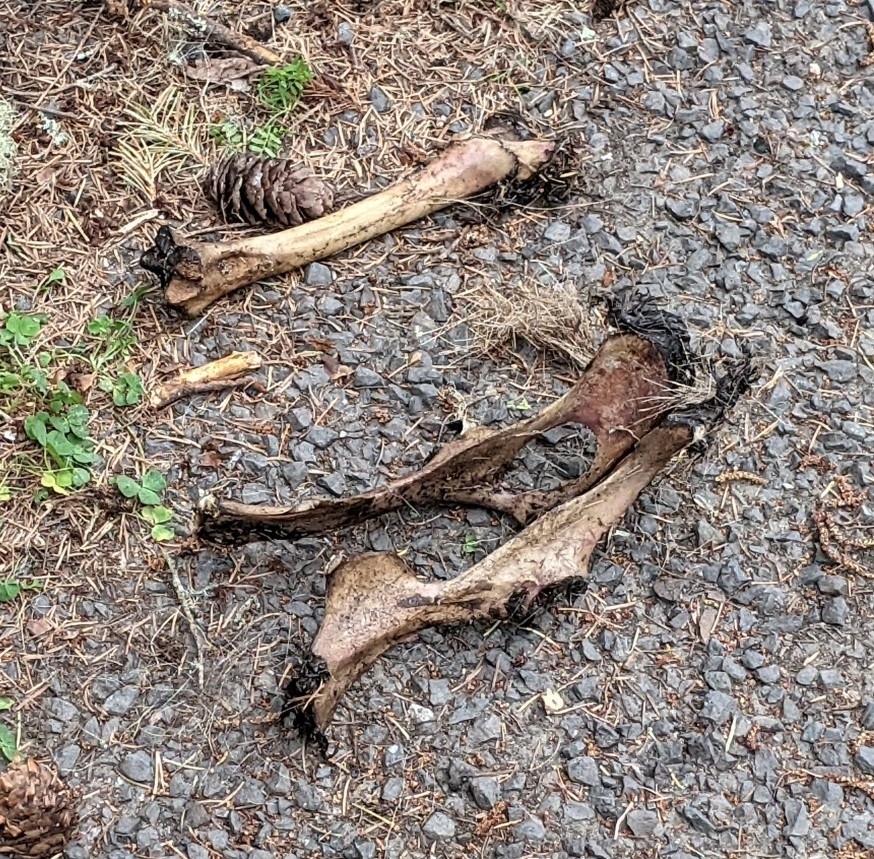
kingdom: Animalia
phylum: Chordata
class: Mammalia
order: Artiodactyla
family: Cervidae
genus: Odocoileus
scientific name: Odocoileus hemionus
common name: Mule deer
